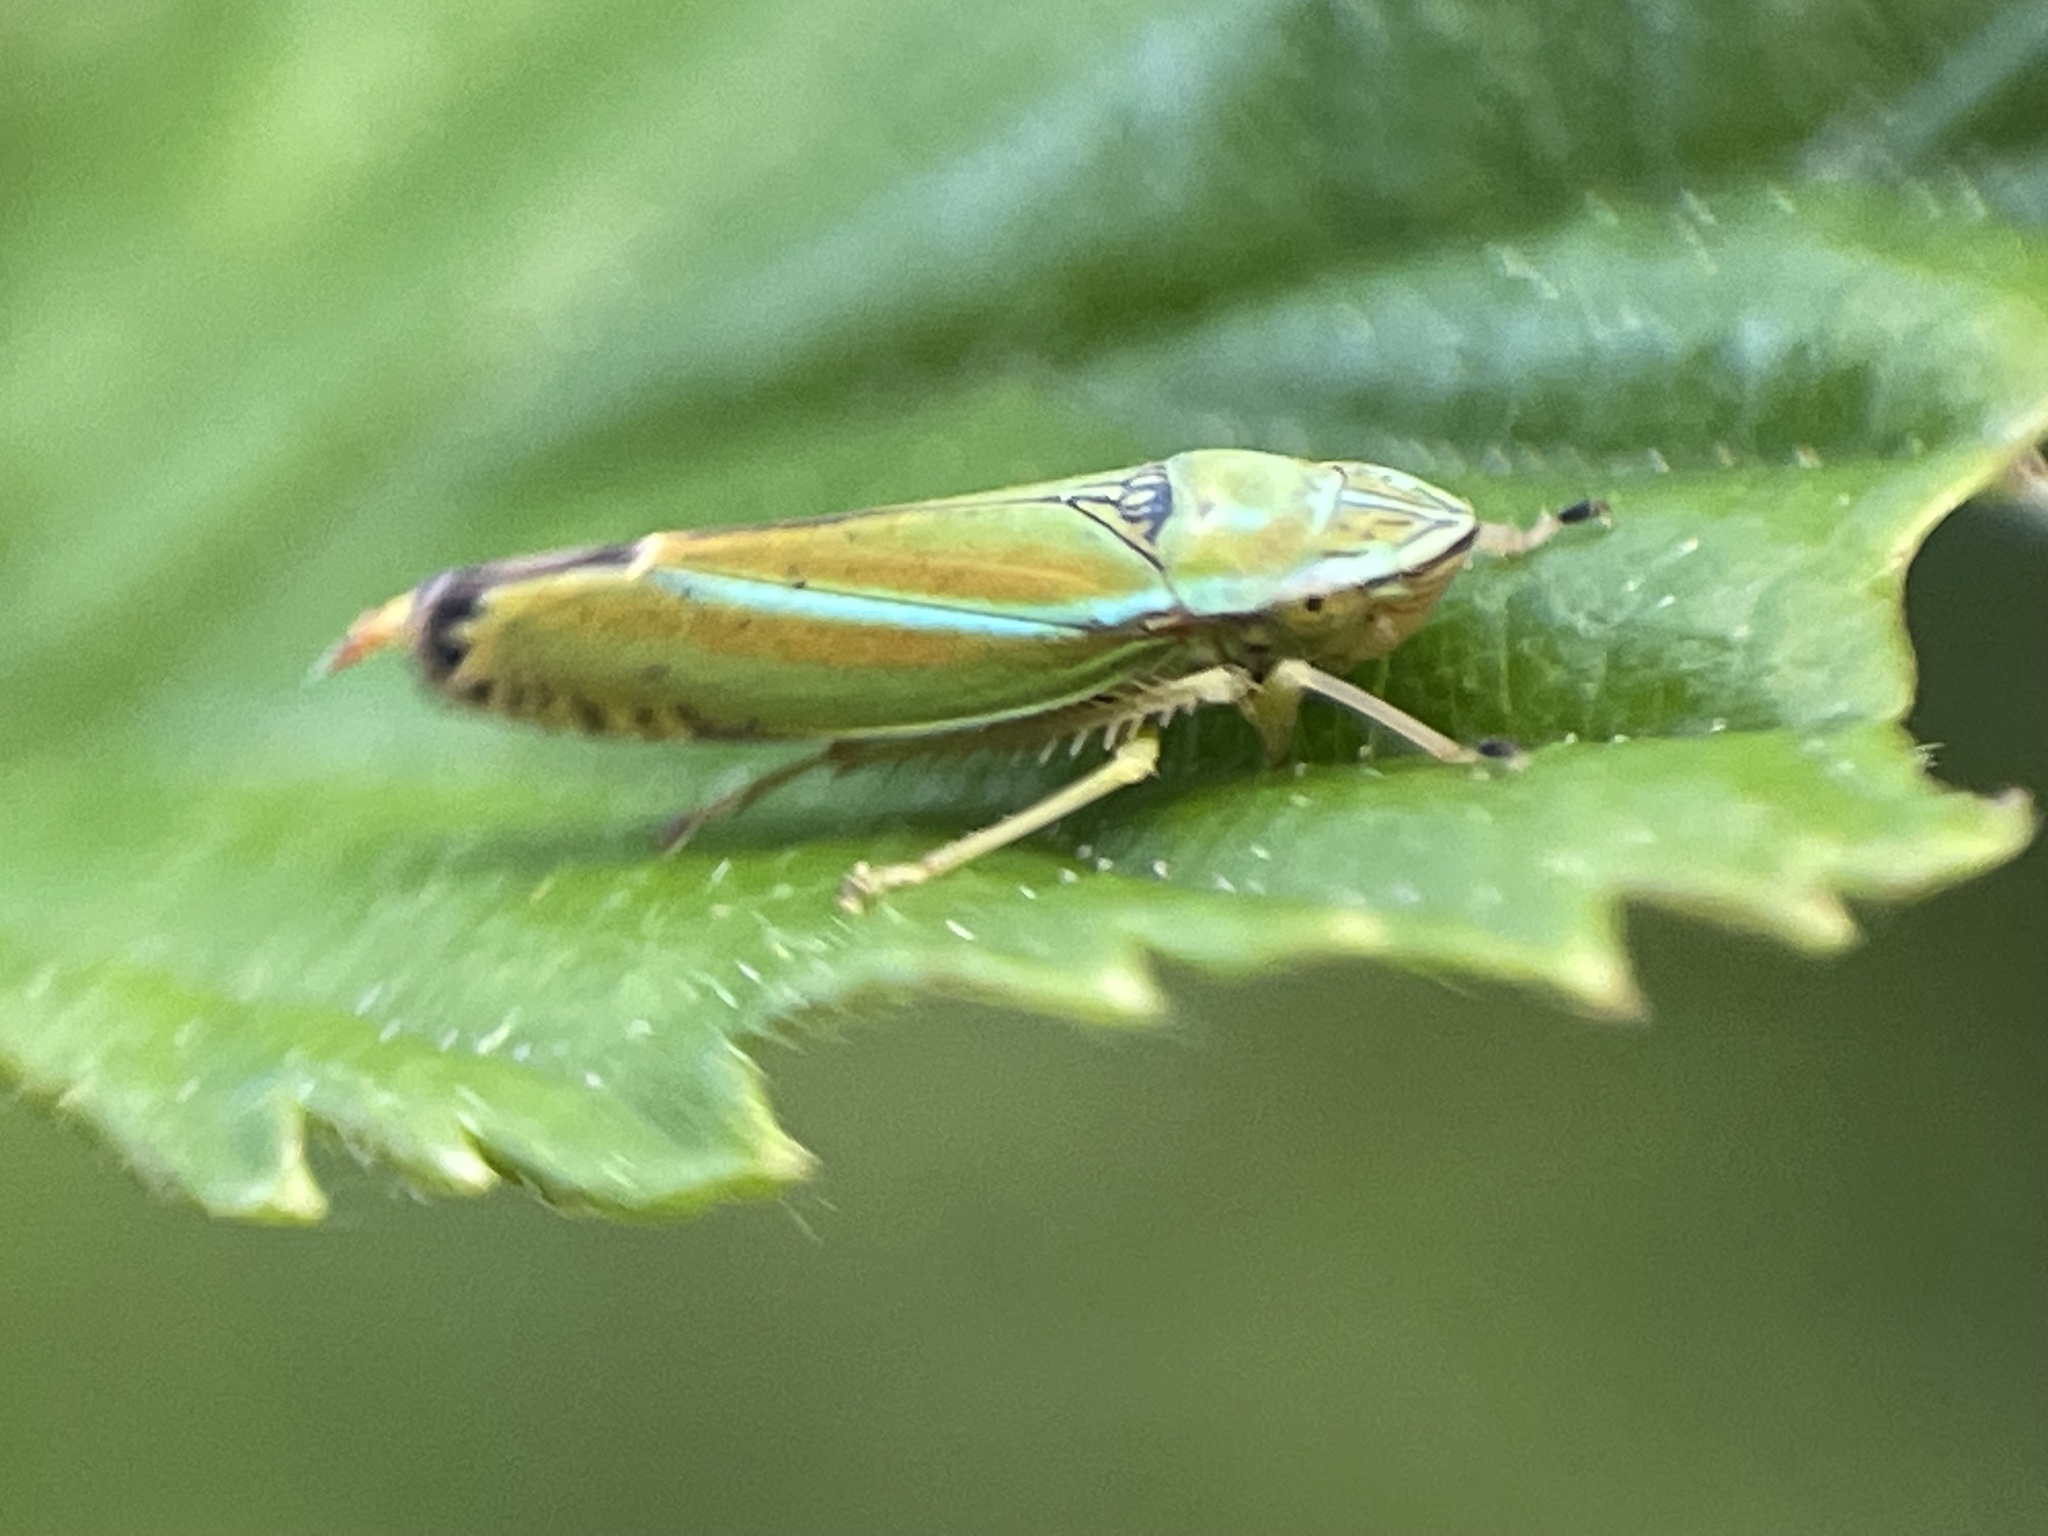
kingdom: Animalia
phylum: Arthropoda
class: Insecta
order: Hemiptera
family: Cicadellidae
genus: Graphocephala
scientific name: Graphocephala versuta
